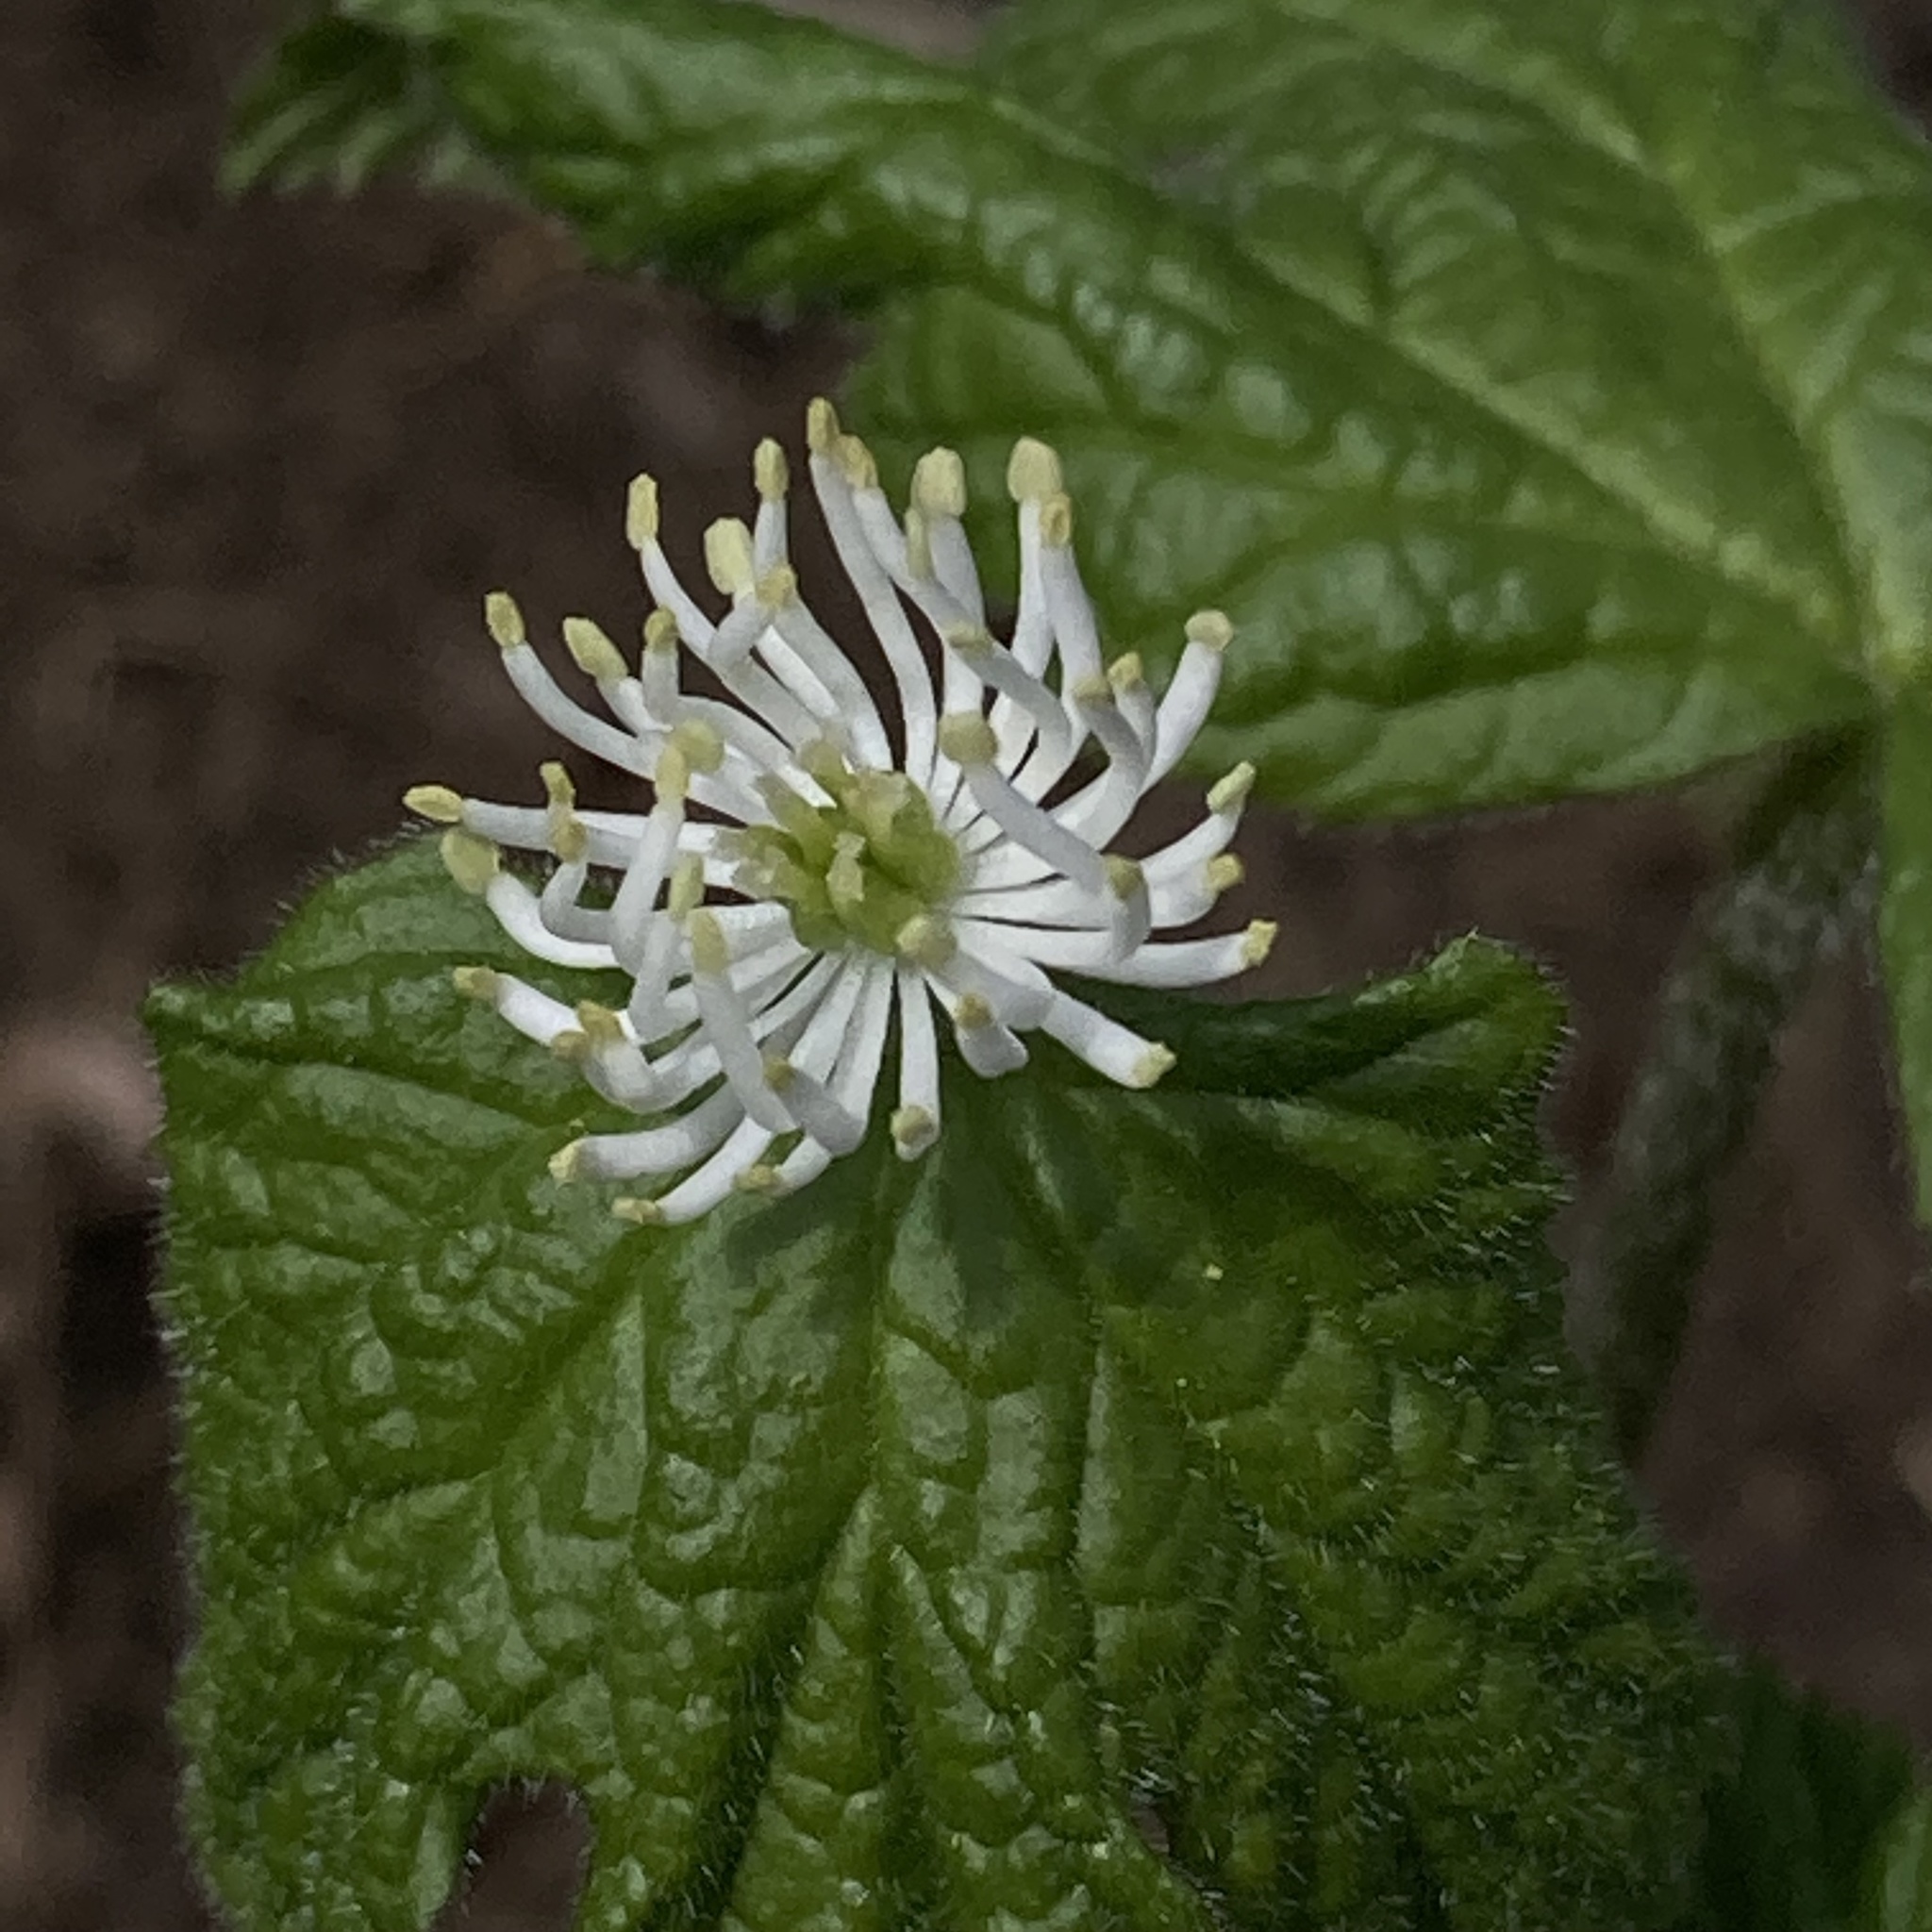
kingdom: Plantae
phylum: Tracheophyta
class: Magnoliopsida
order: Ranunculales
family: Ranunculaceae
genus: Hydrastis
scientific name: Hydrastis canadensis
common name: Goldenseal
